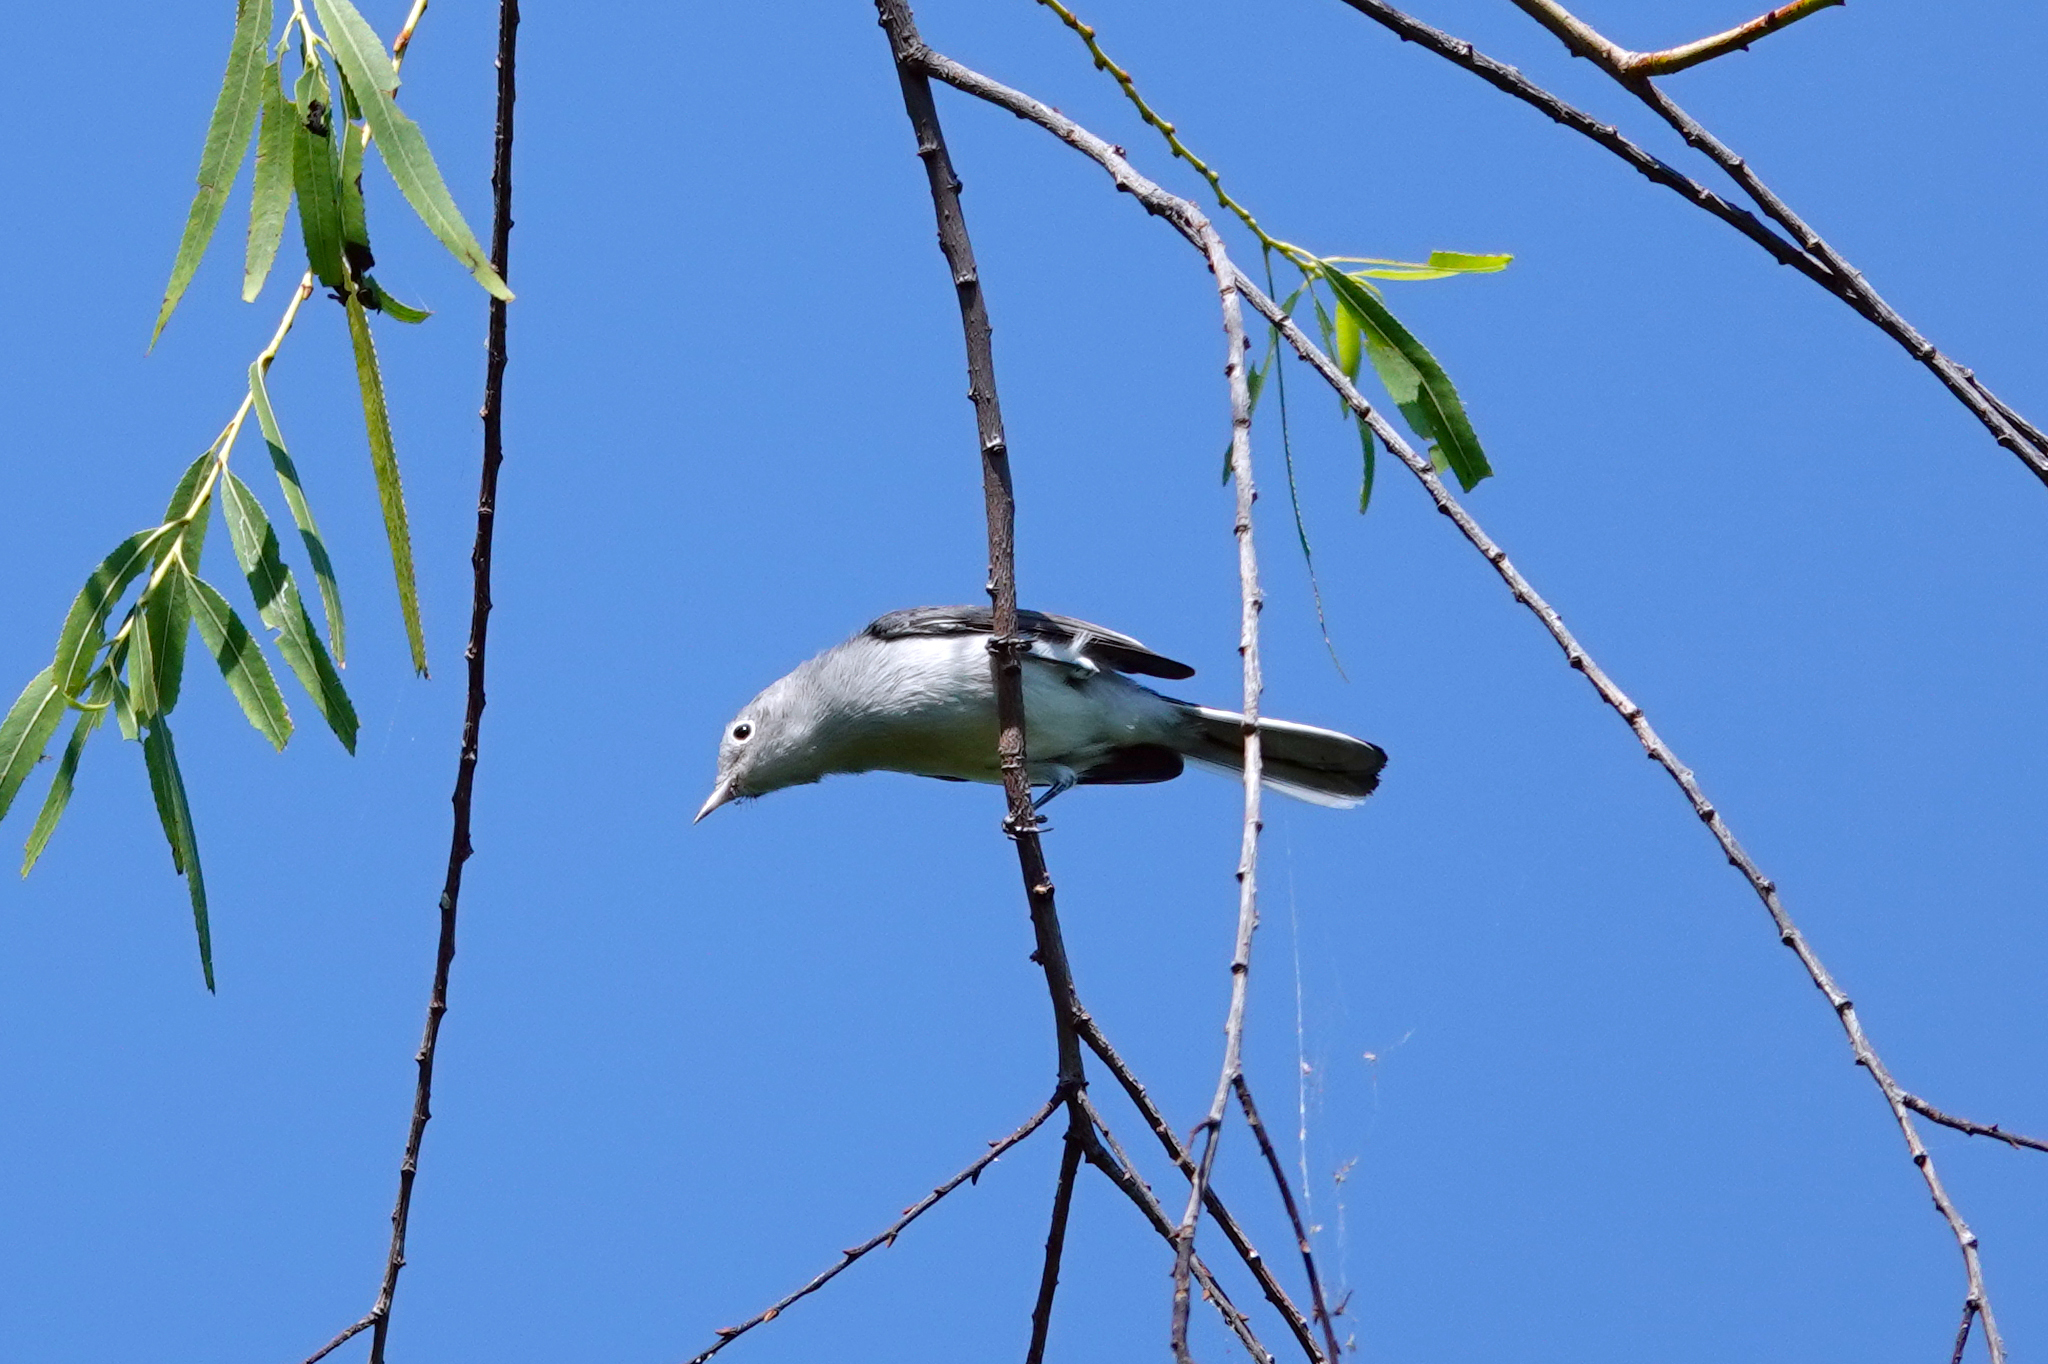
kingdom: Animalia
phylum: Chordata
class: Aves
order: Passeriformes
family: Polioptilidae
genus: Polioptila
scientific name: Polioptila caerulea
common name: Blue-gray gnatcatcher
